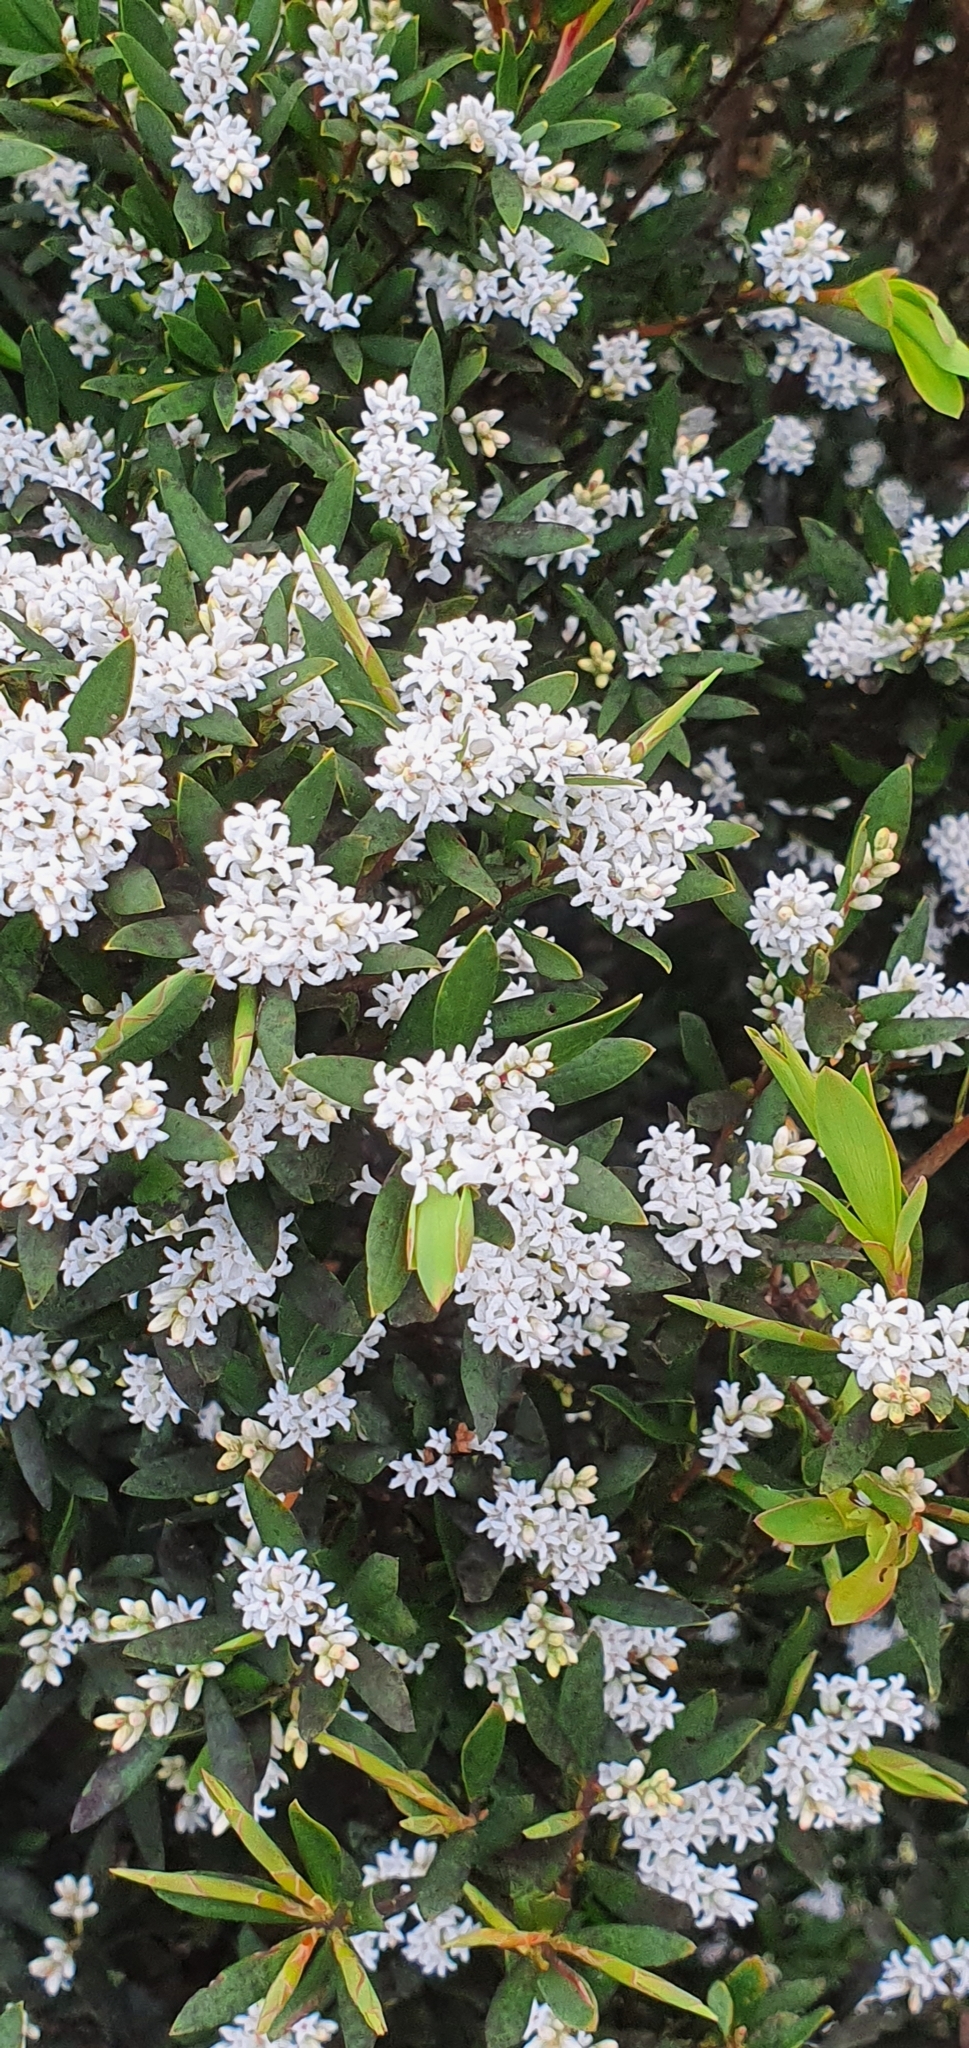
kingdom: Plantae
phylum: Tracheophyta
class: Magnoliopsida
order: Ericales
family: Ericaceae
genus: Leptecophylla
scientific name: Leptecophylla parvifolia
